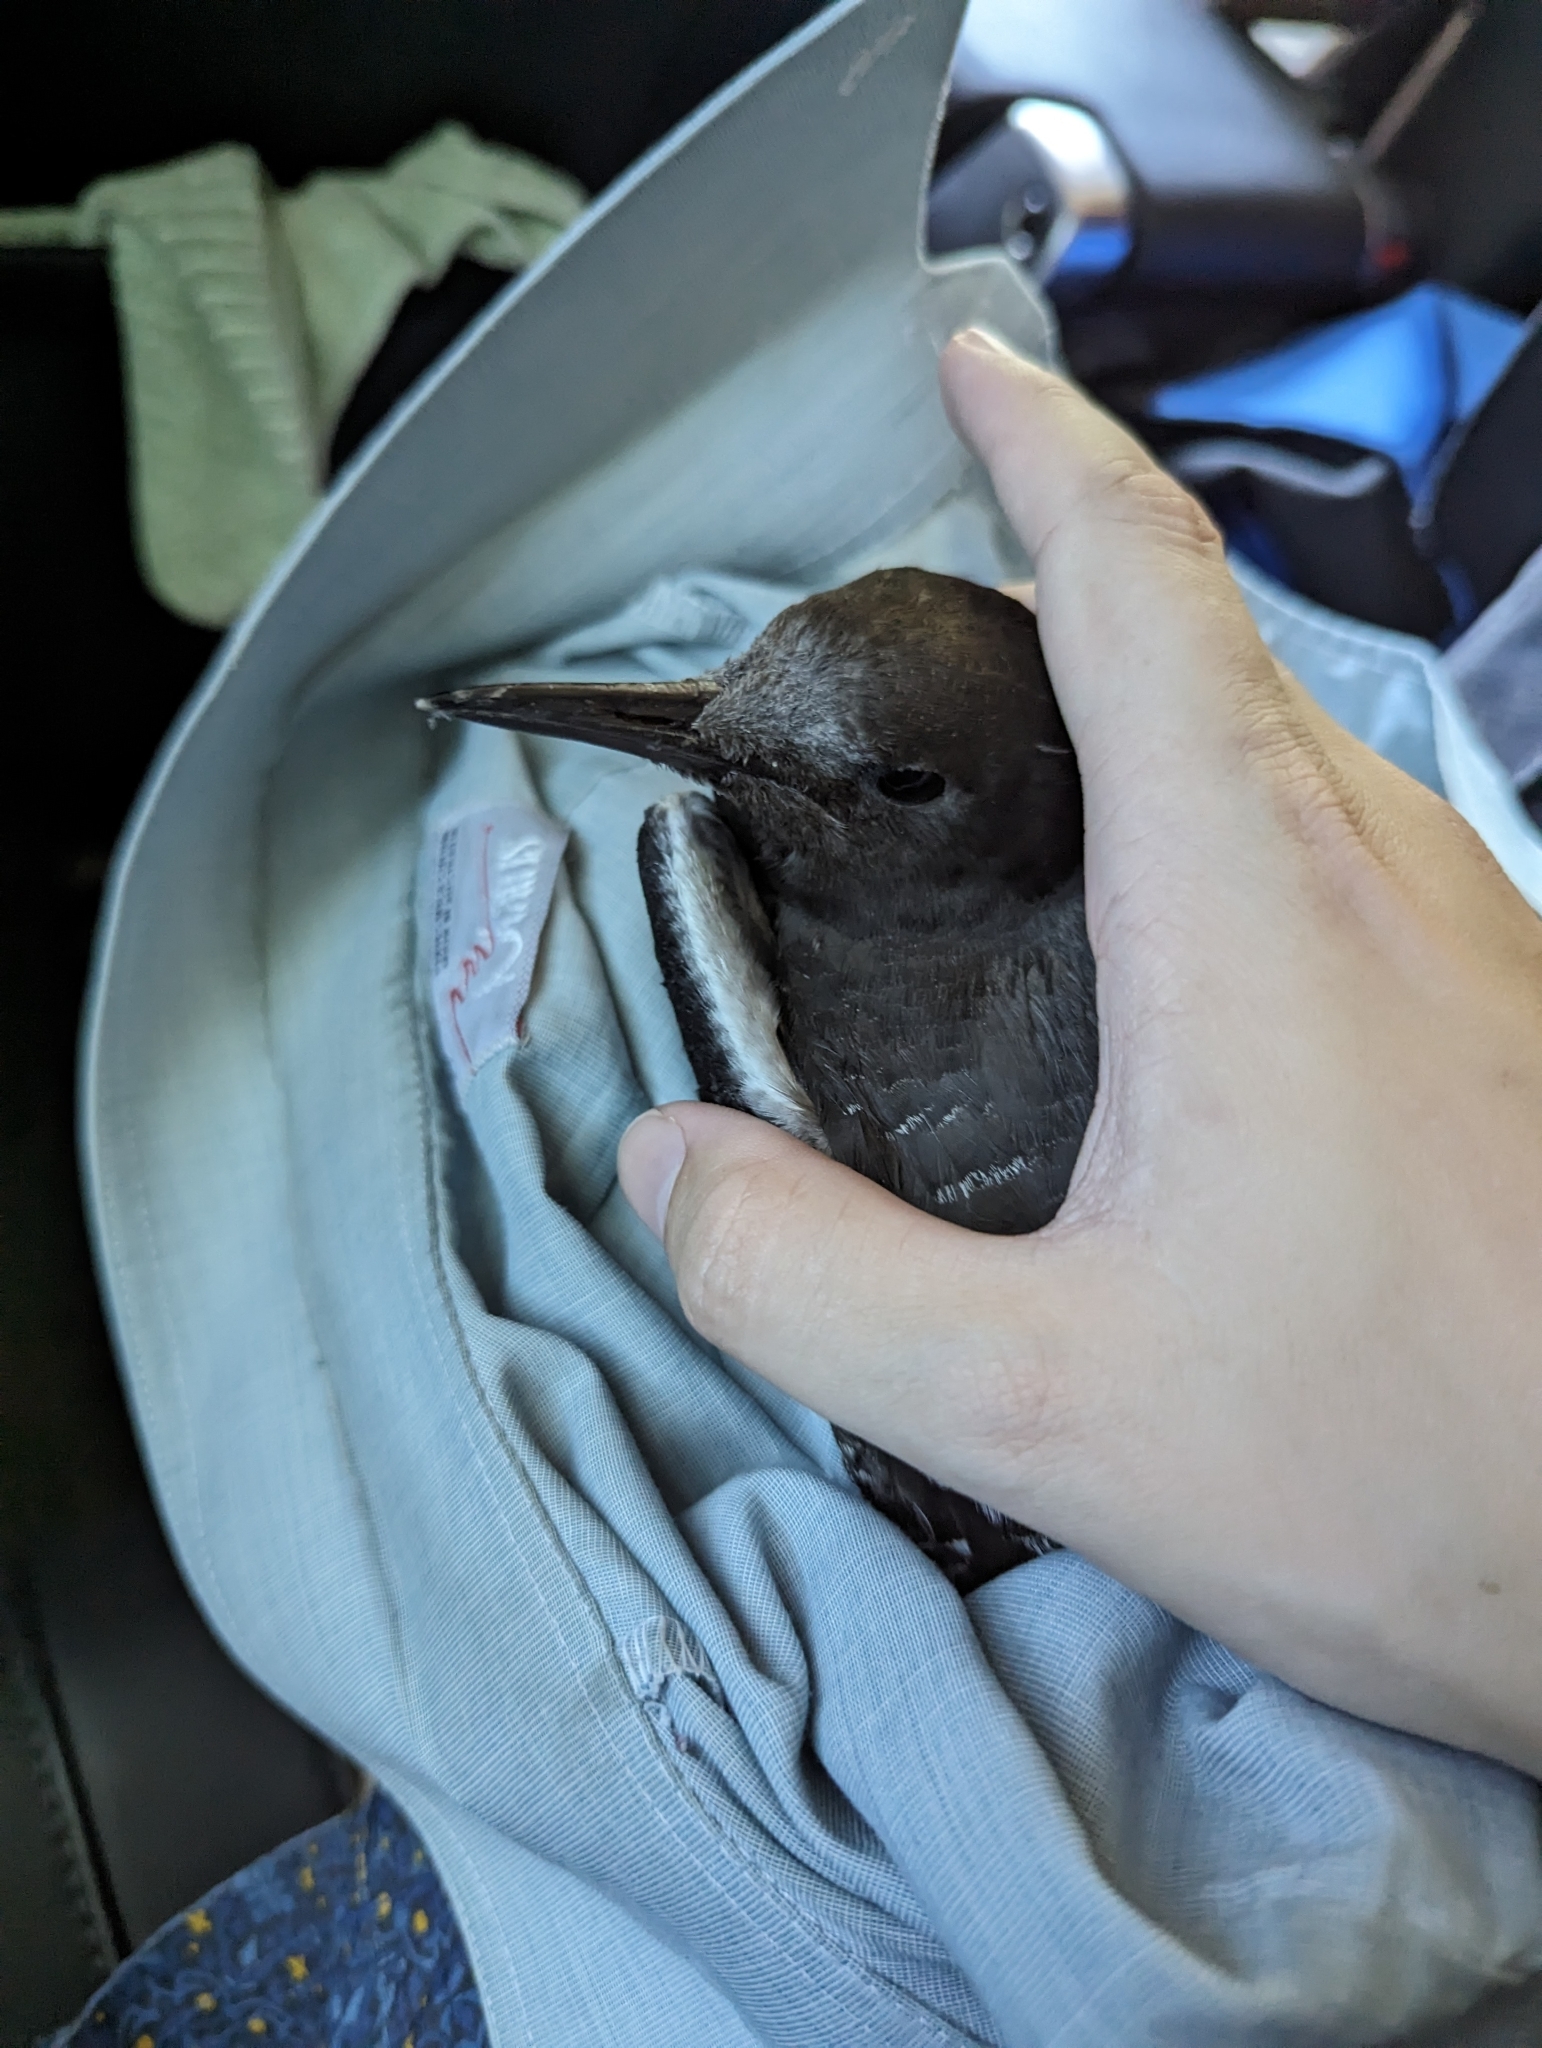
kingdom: Animalia
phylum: Chordata
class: Aves
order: Charadriiformes
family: Laridae
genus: Onychoprion
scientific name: Onychoprion fuscatus
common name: Sooty tern
